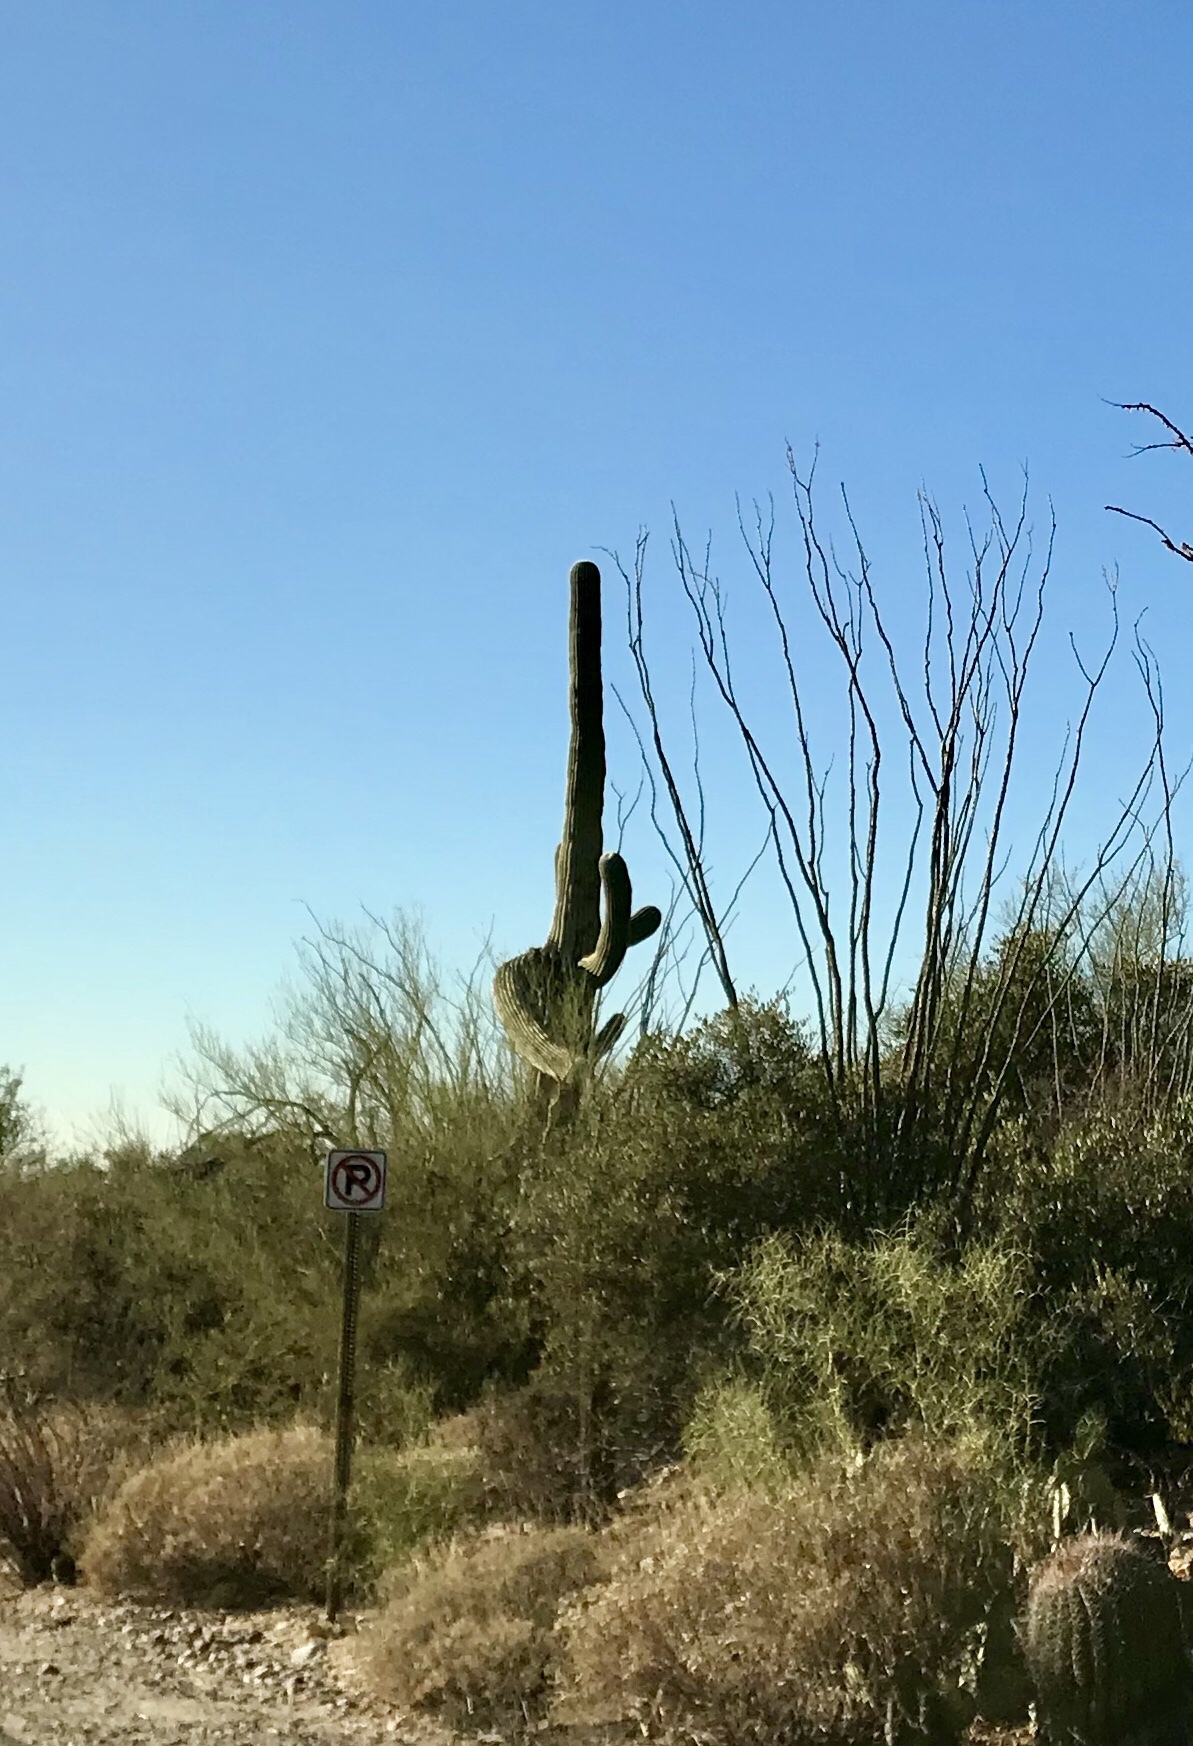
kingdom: Plantae
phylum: Tracheophyta
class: Magnoliopsida
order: Caryophyllales
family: Cactaceae
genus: Carnegiea
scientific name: Carnegiea gigantea
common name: Saguaro
